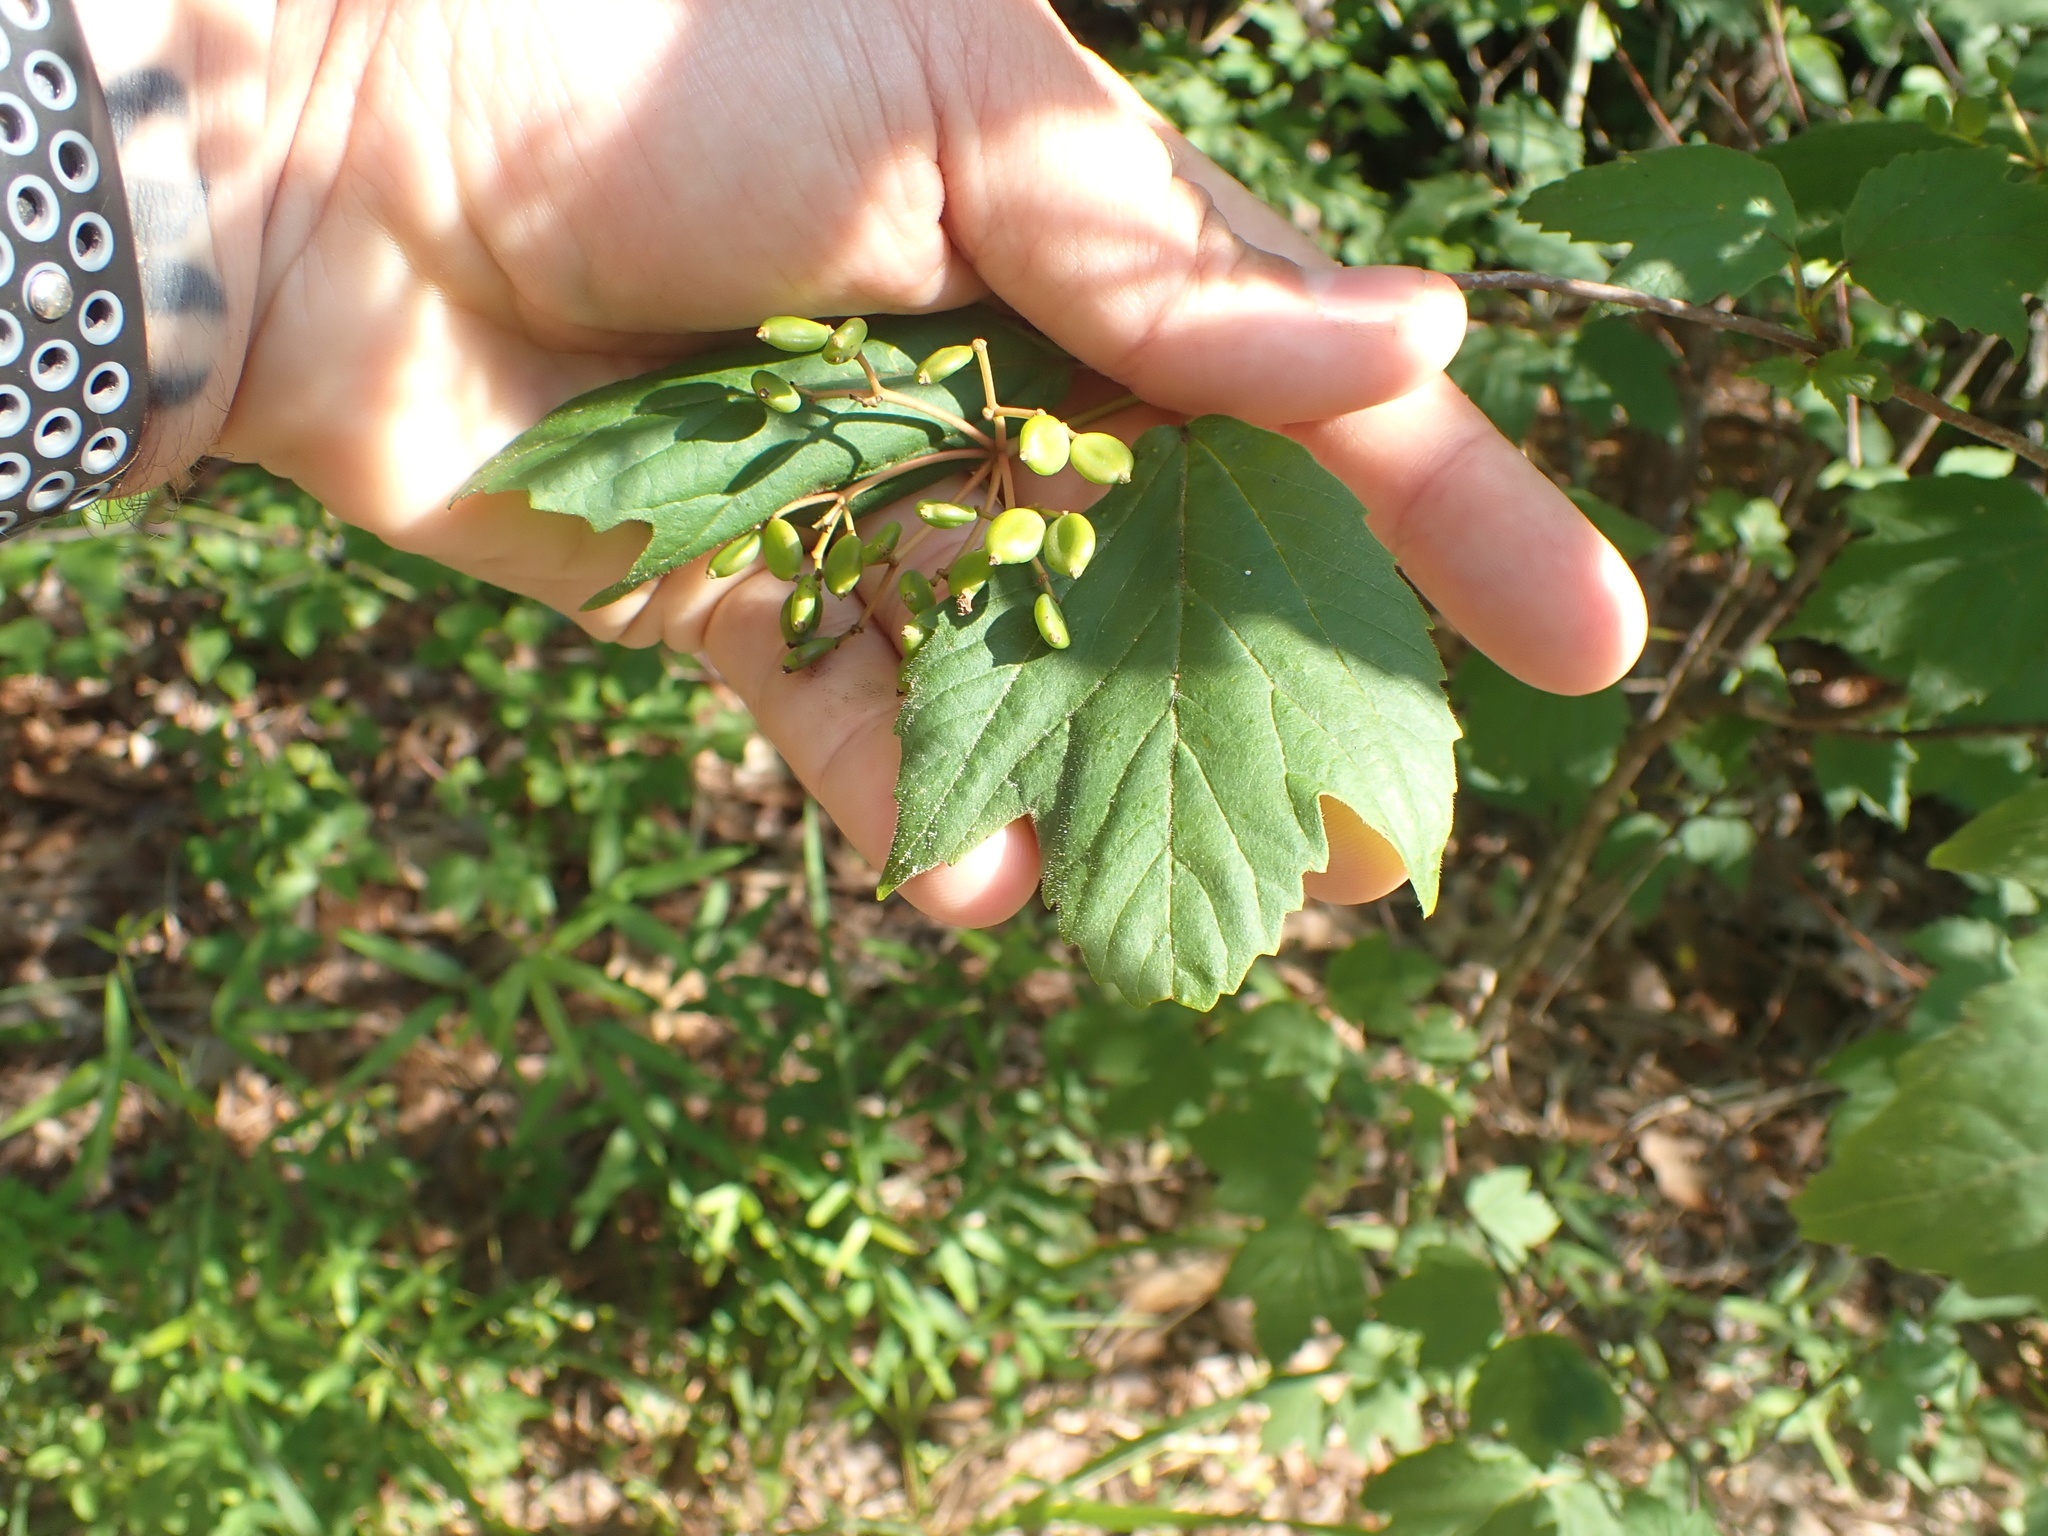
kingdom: Plantae
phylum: Tracheophyta
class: Magnoliopsida
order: Dipsacales
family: Viburnaceae
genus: Viburnum
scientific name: Viburnum acerifolium
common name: Dockmackie
